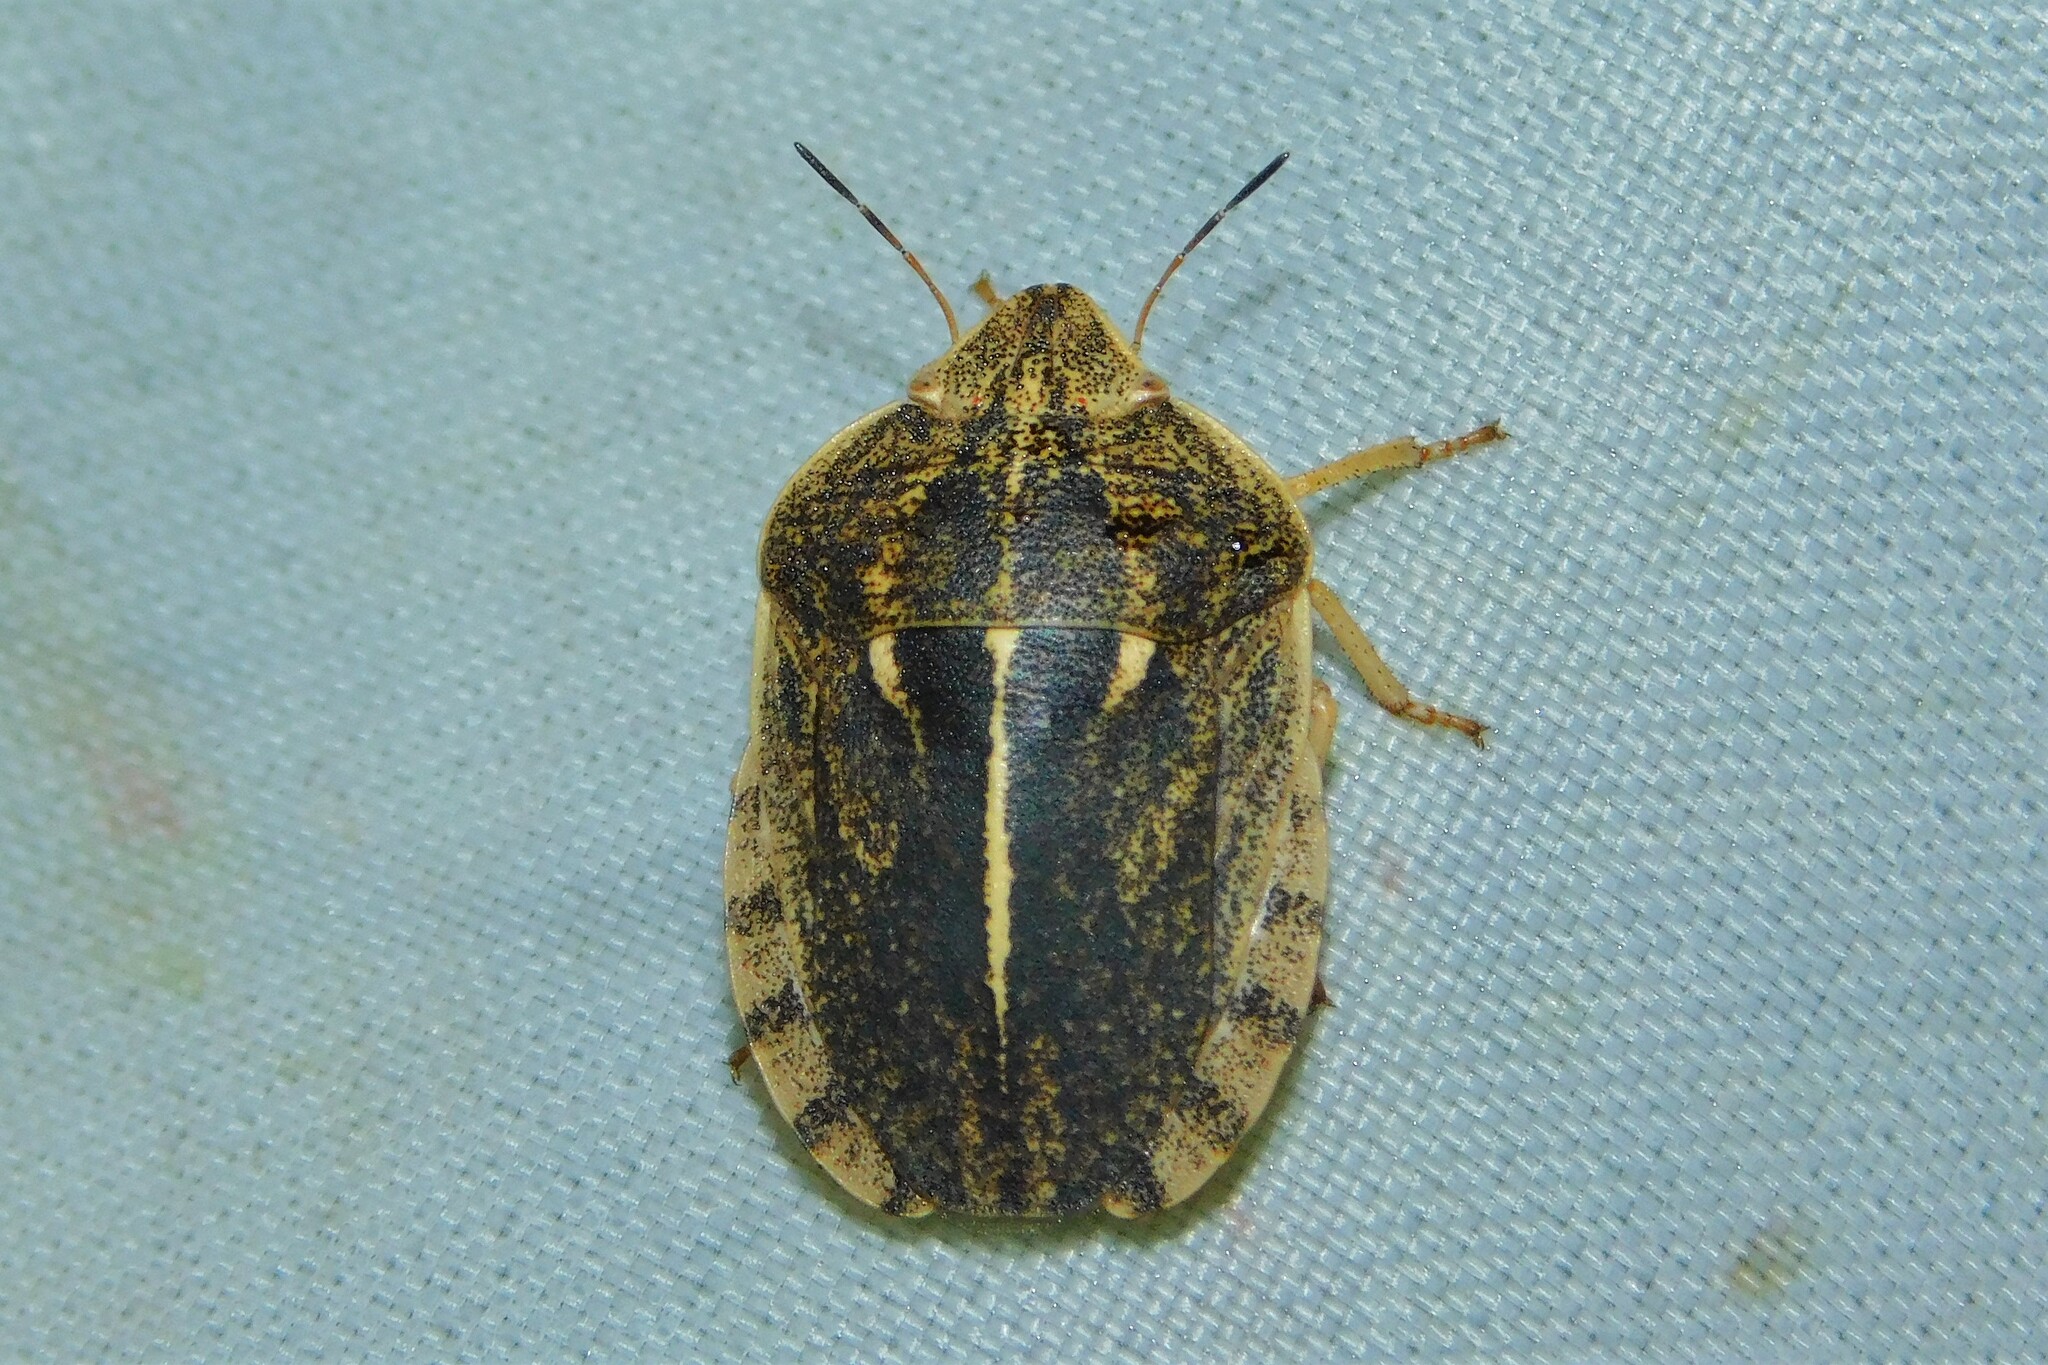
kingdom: Animalia
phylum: Arthropoda
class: Insecta
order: Hemiptera
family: Scutelleridae
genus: Eurygaster
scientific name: Eurygaster austriaca
